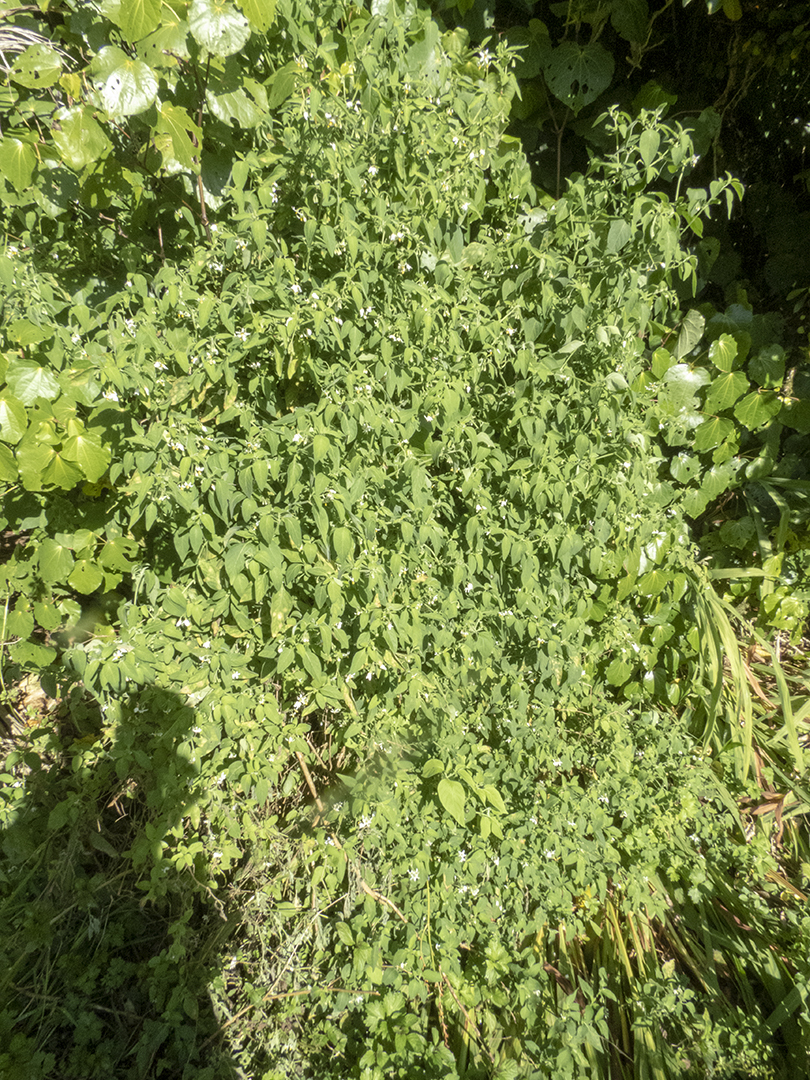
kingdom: Plantae
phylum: Tracheophyta
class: Magnoliopsida
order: Solanales
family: Solanaceae
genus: Solanum
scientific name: Solanum chenopodioides
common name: Tall nightshade
